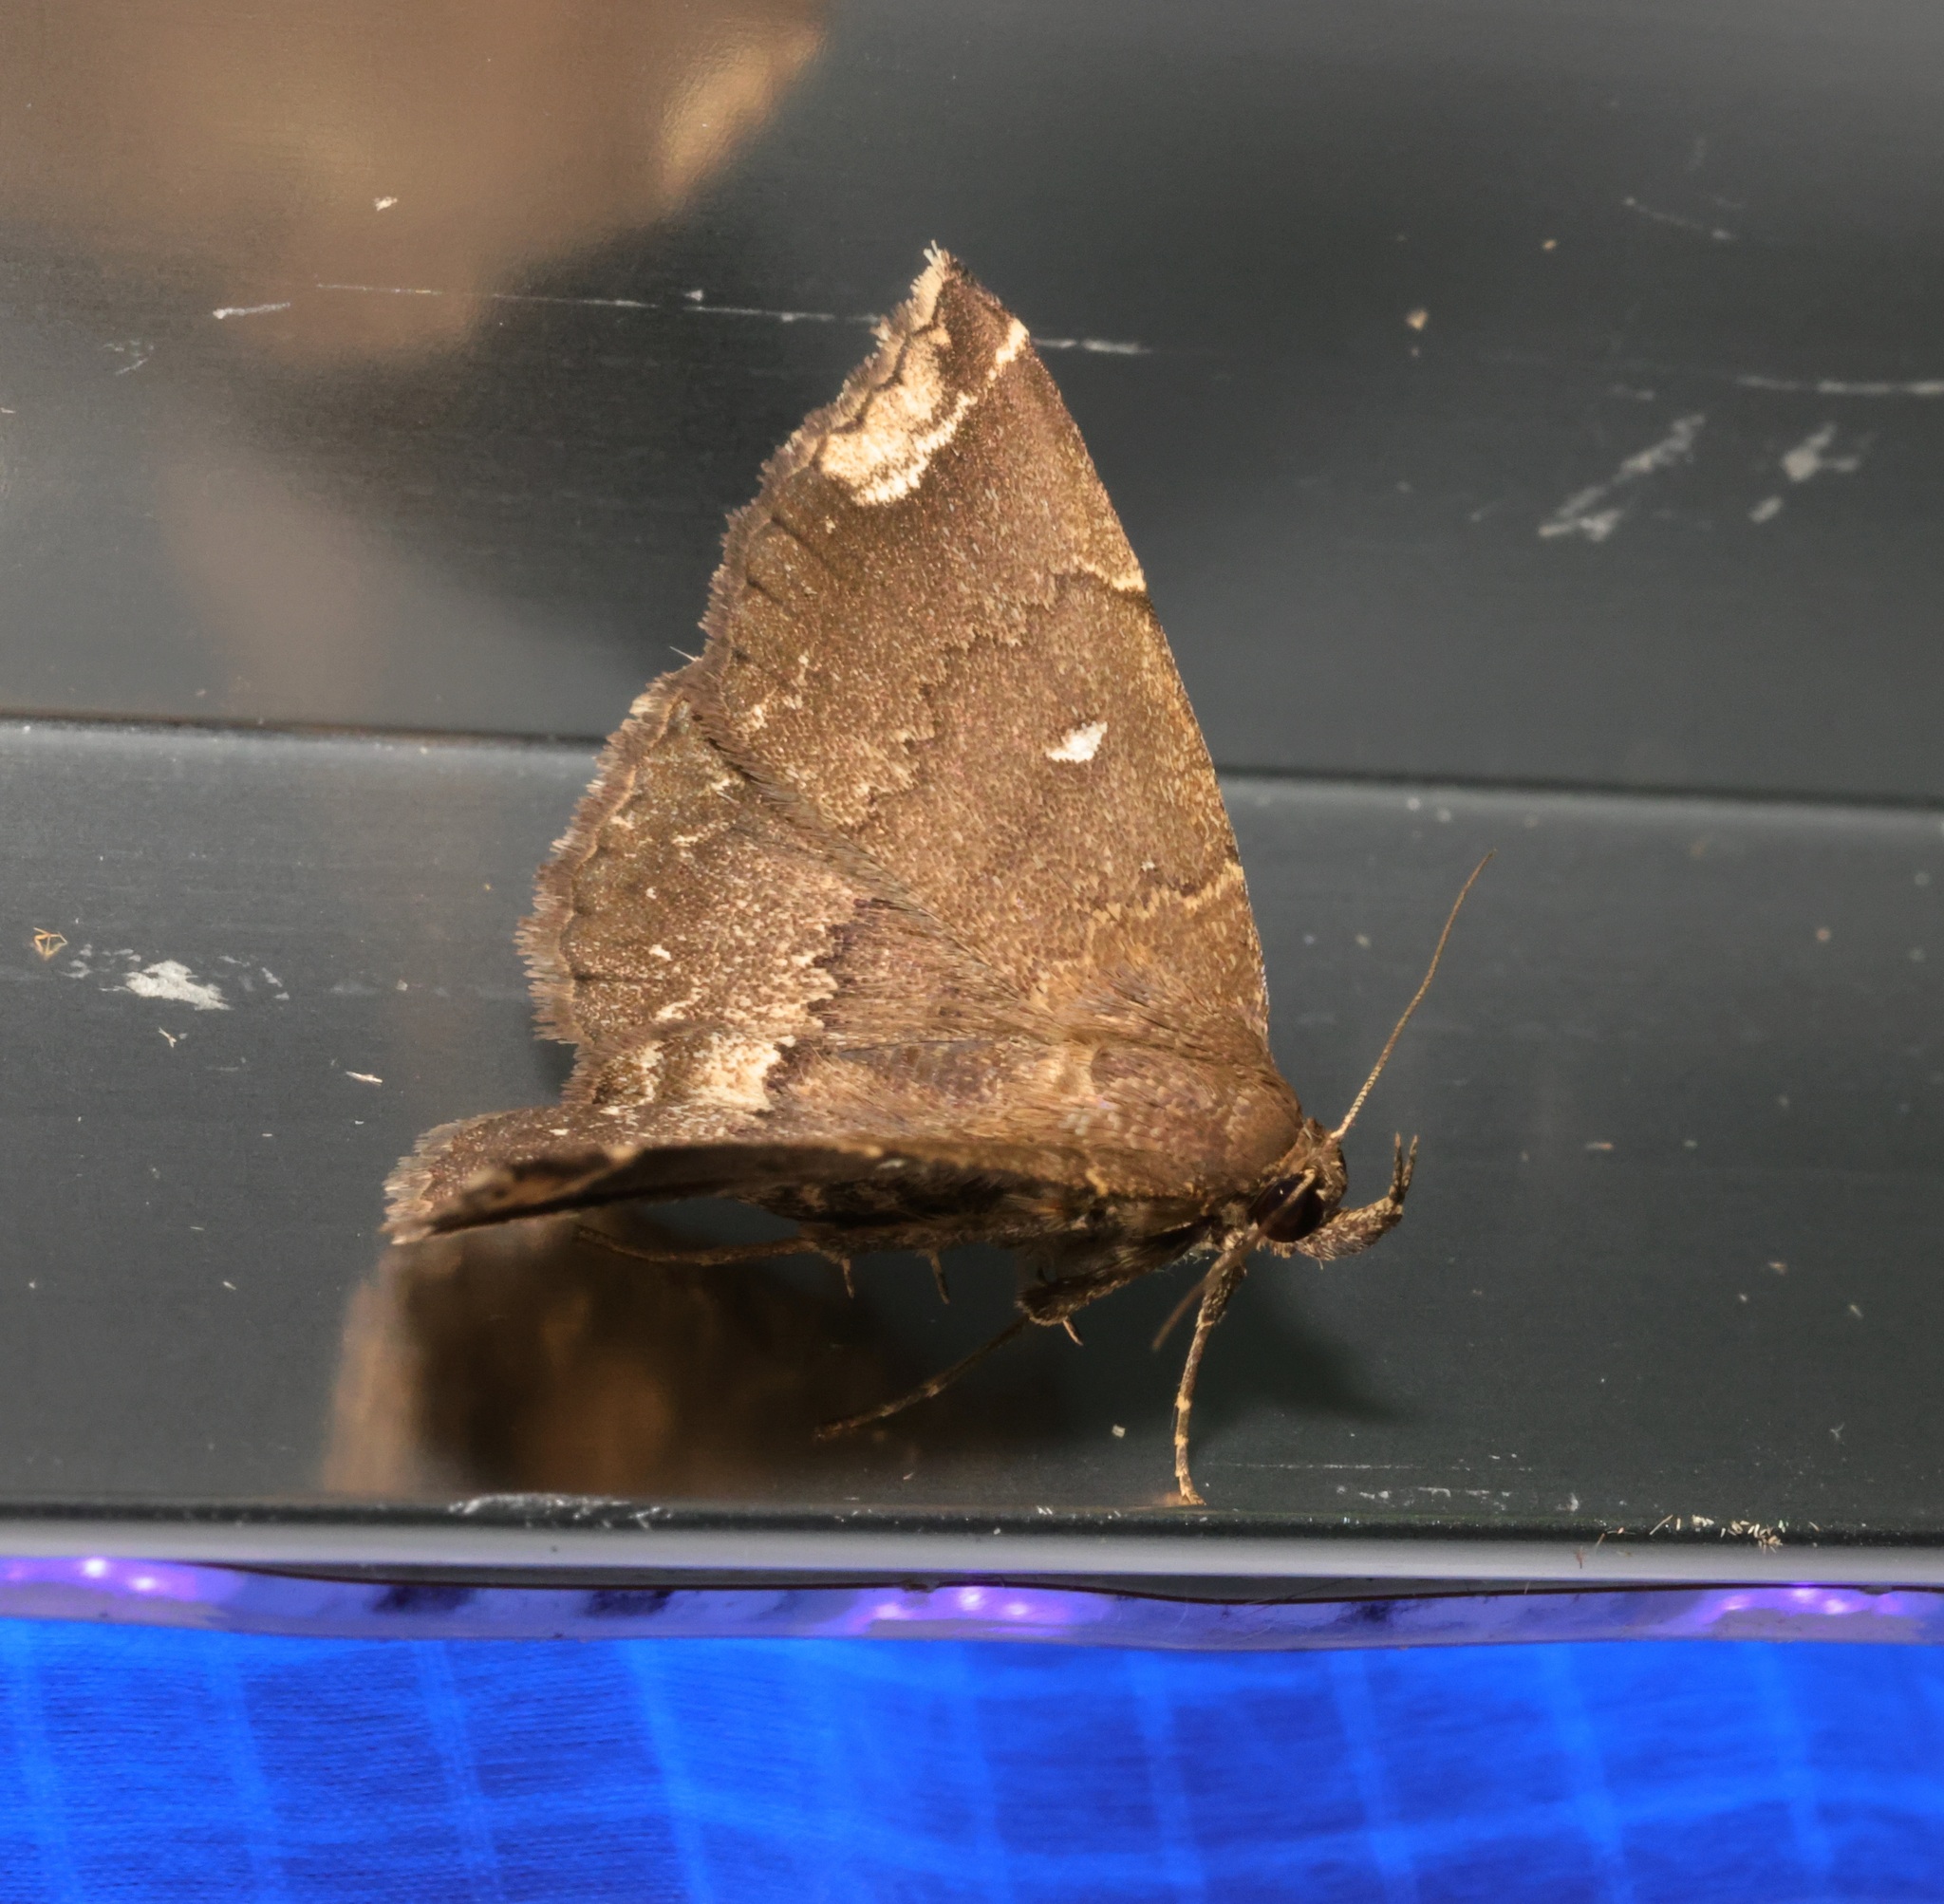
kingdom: Animalia
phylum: Arthropoda
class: Insecta
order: Lepidoptera
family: Erebidae
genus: Adrapsa
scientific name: Adrapsa quadrilinealis
